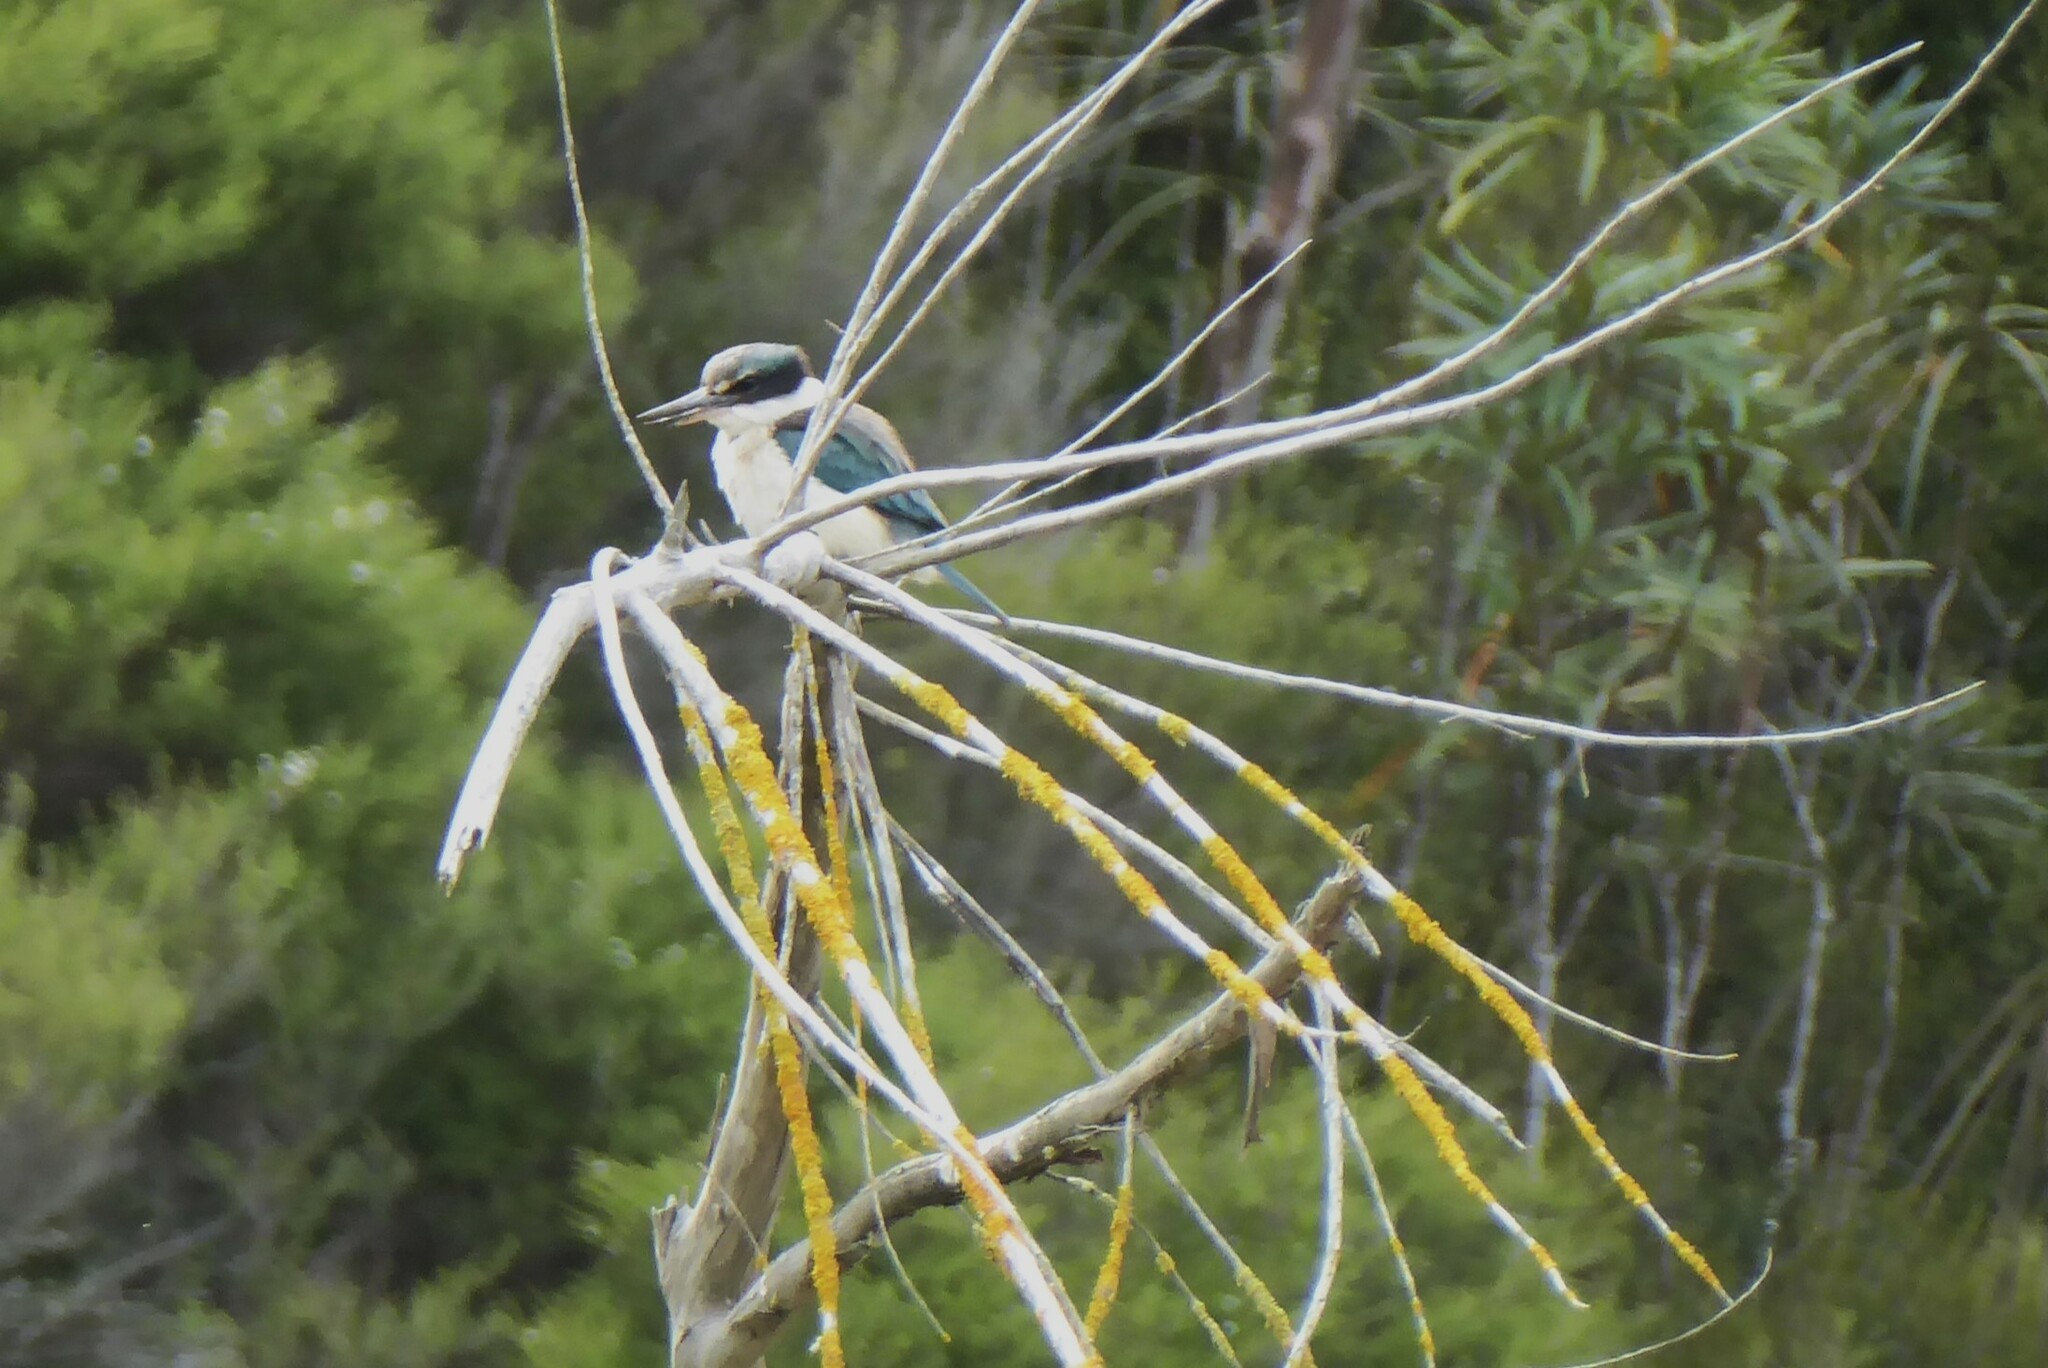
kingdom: Animalia
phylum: Chordata
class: Aves
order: Coraciiformes
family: Alcedinidae
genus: Todiramphus
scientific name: Todiramphus sanctus
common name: Sacred kingfisher
